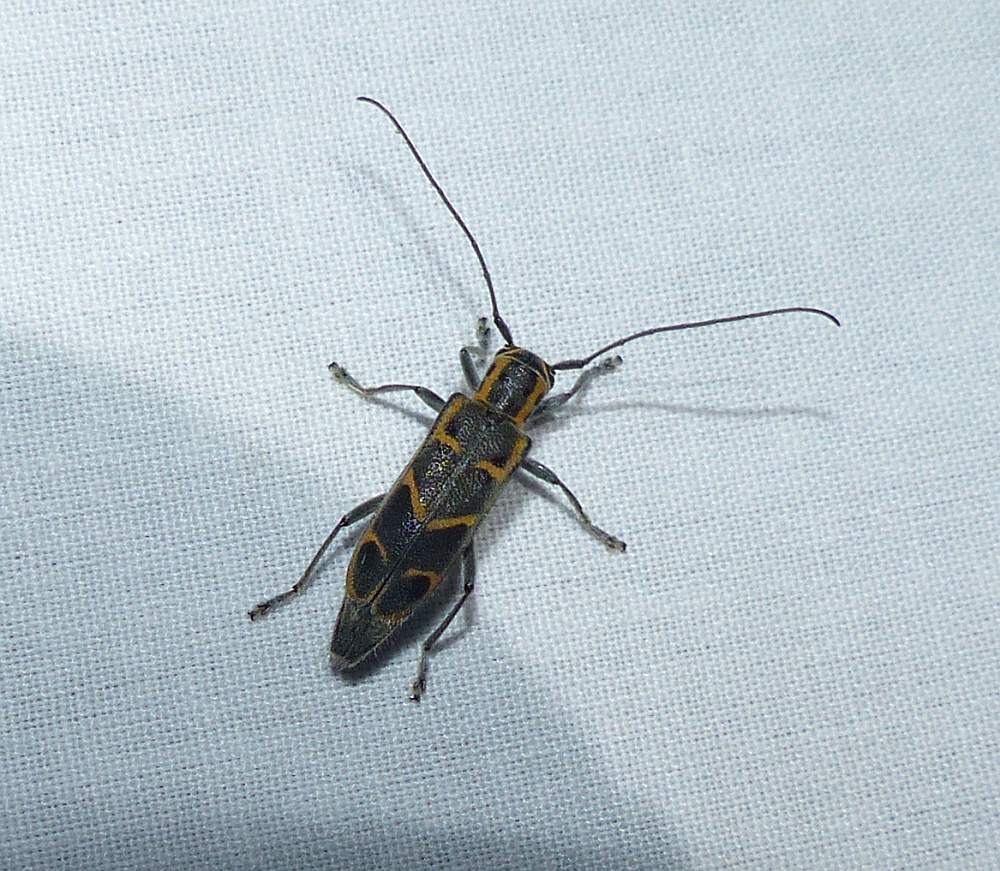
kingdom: Animalia
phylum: Arthropoda
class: Insecta
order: Coleoptera
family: Cerambycidae
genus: Saperda
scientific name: Saperda tridentata
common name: Elm borer
